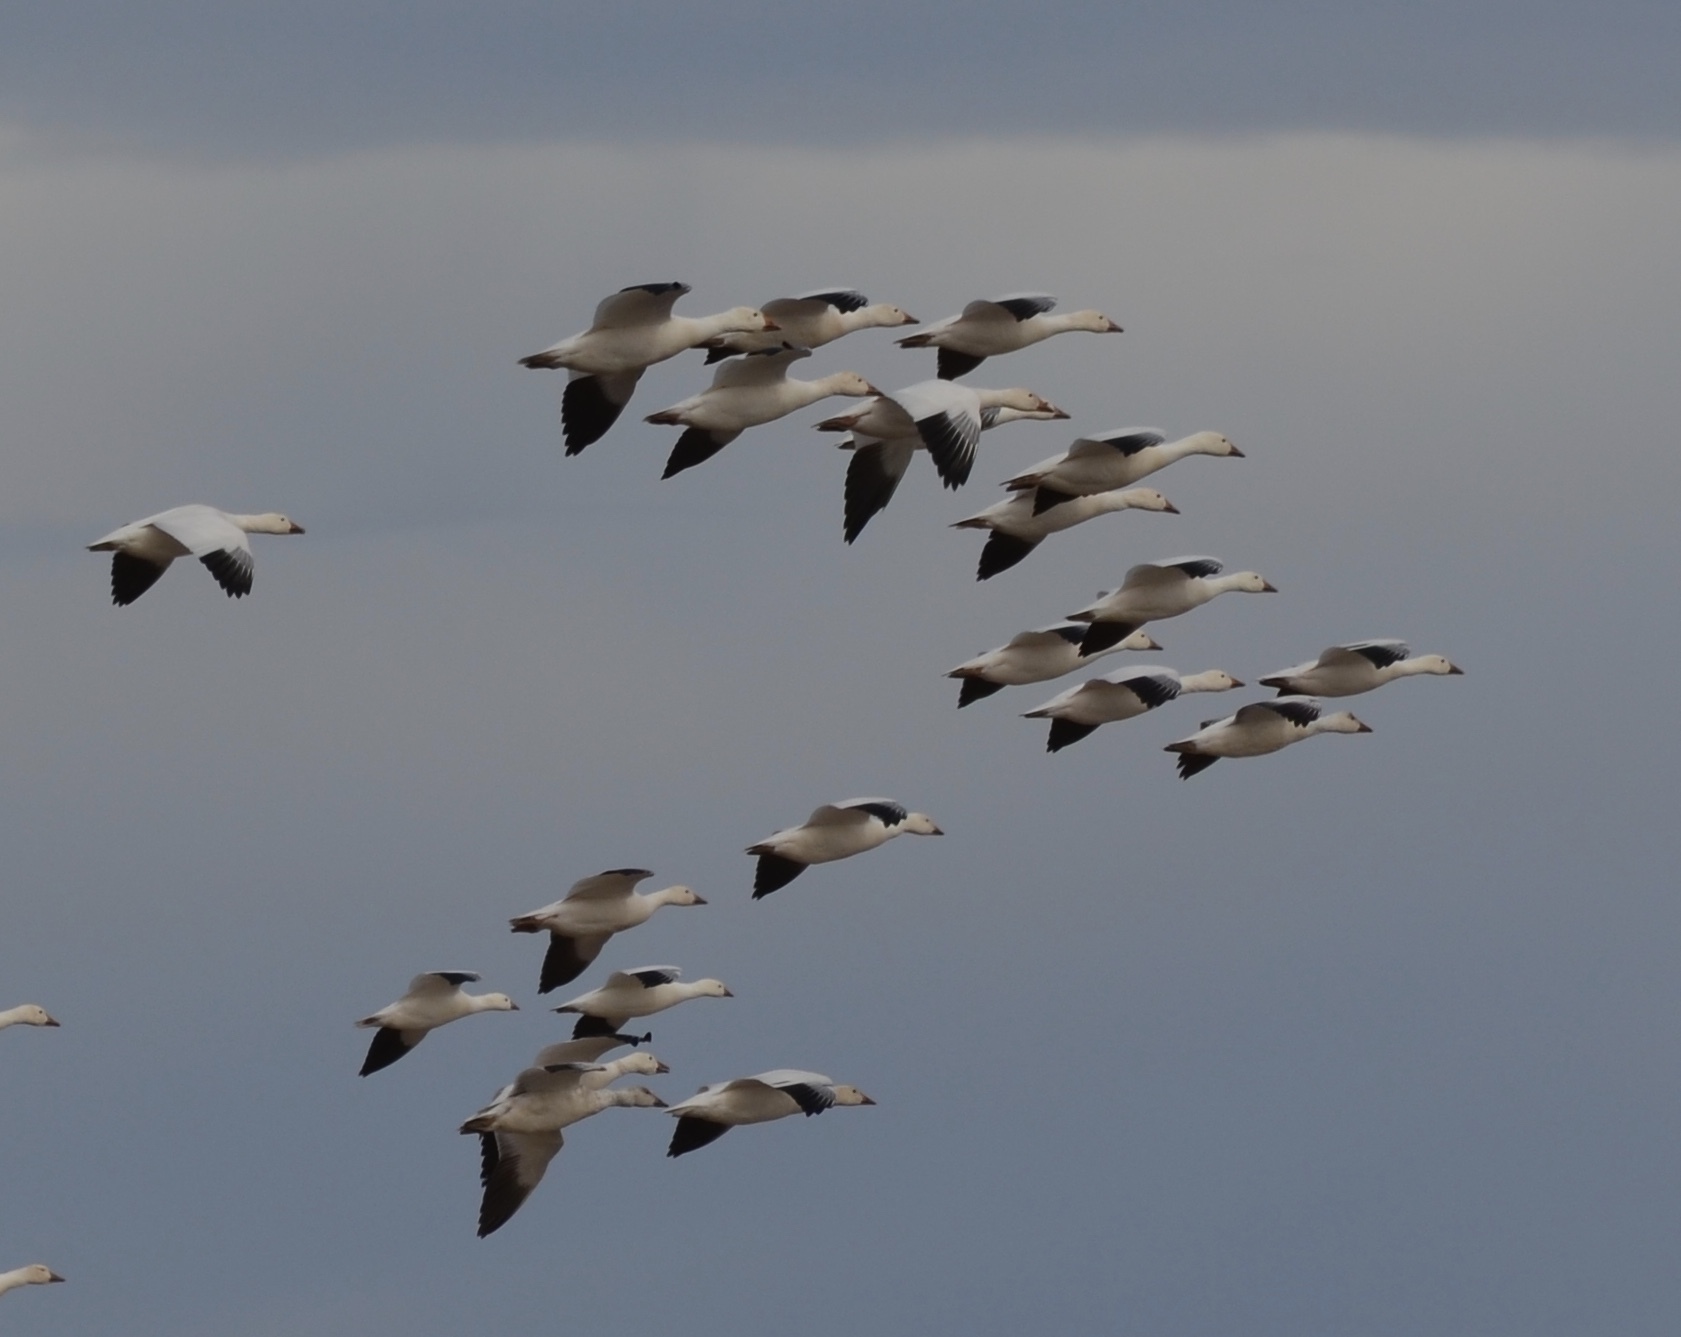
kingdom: Animalia
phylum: Chordata
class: Aves
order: Anseriformes
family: Anatidae
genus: Anser
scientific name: Anser caerulescens
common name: Snow goose
